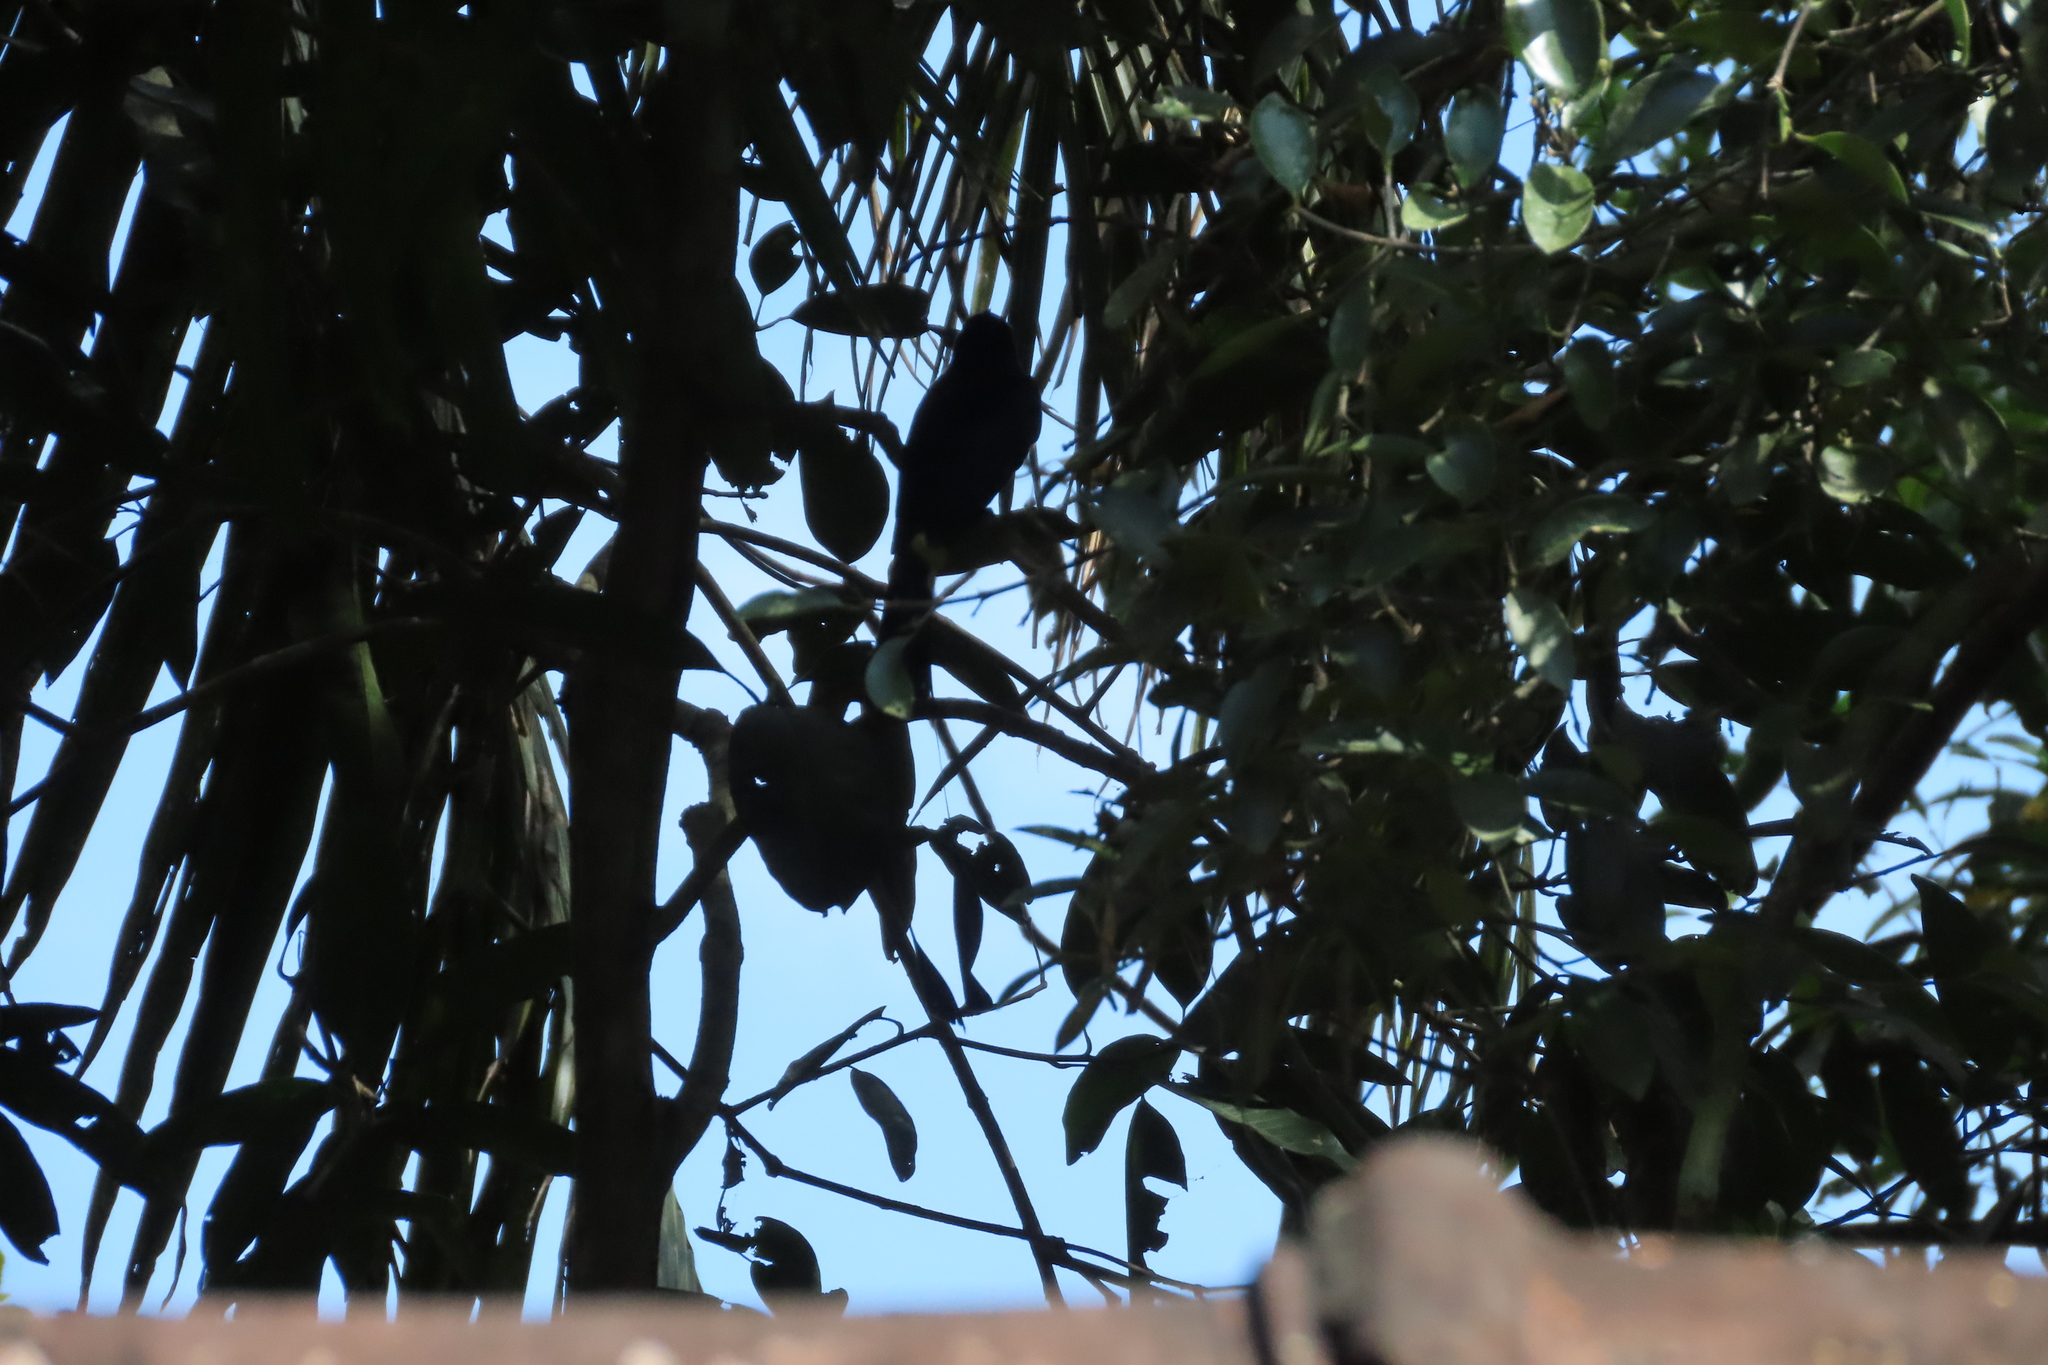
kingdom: Animalia
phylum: Chordata
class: Aves
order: Passeriformes
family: Dicruridae
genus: Dicrurus
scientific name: Dicrurus paradiseus
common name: Greater racket-tailed drongo
